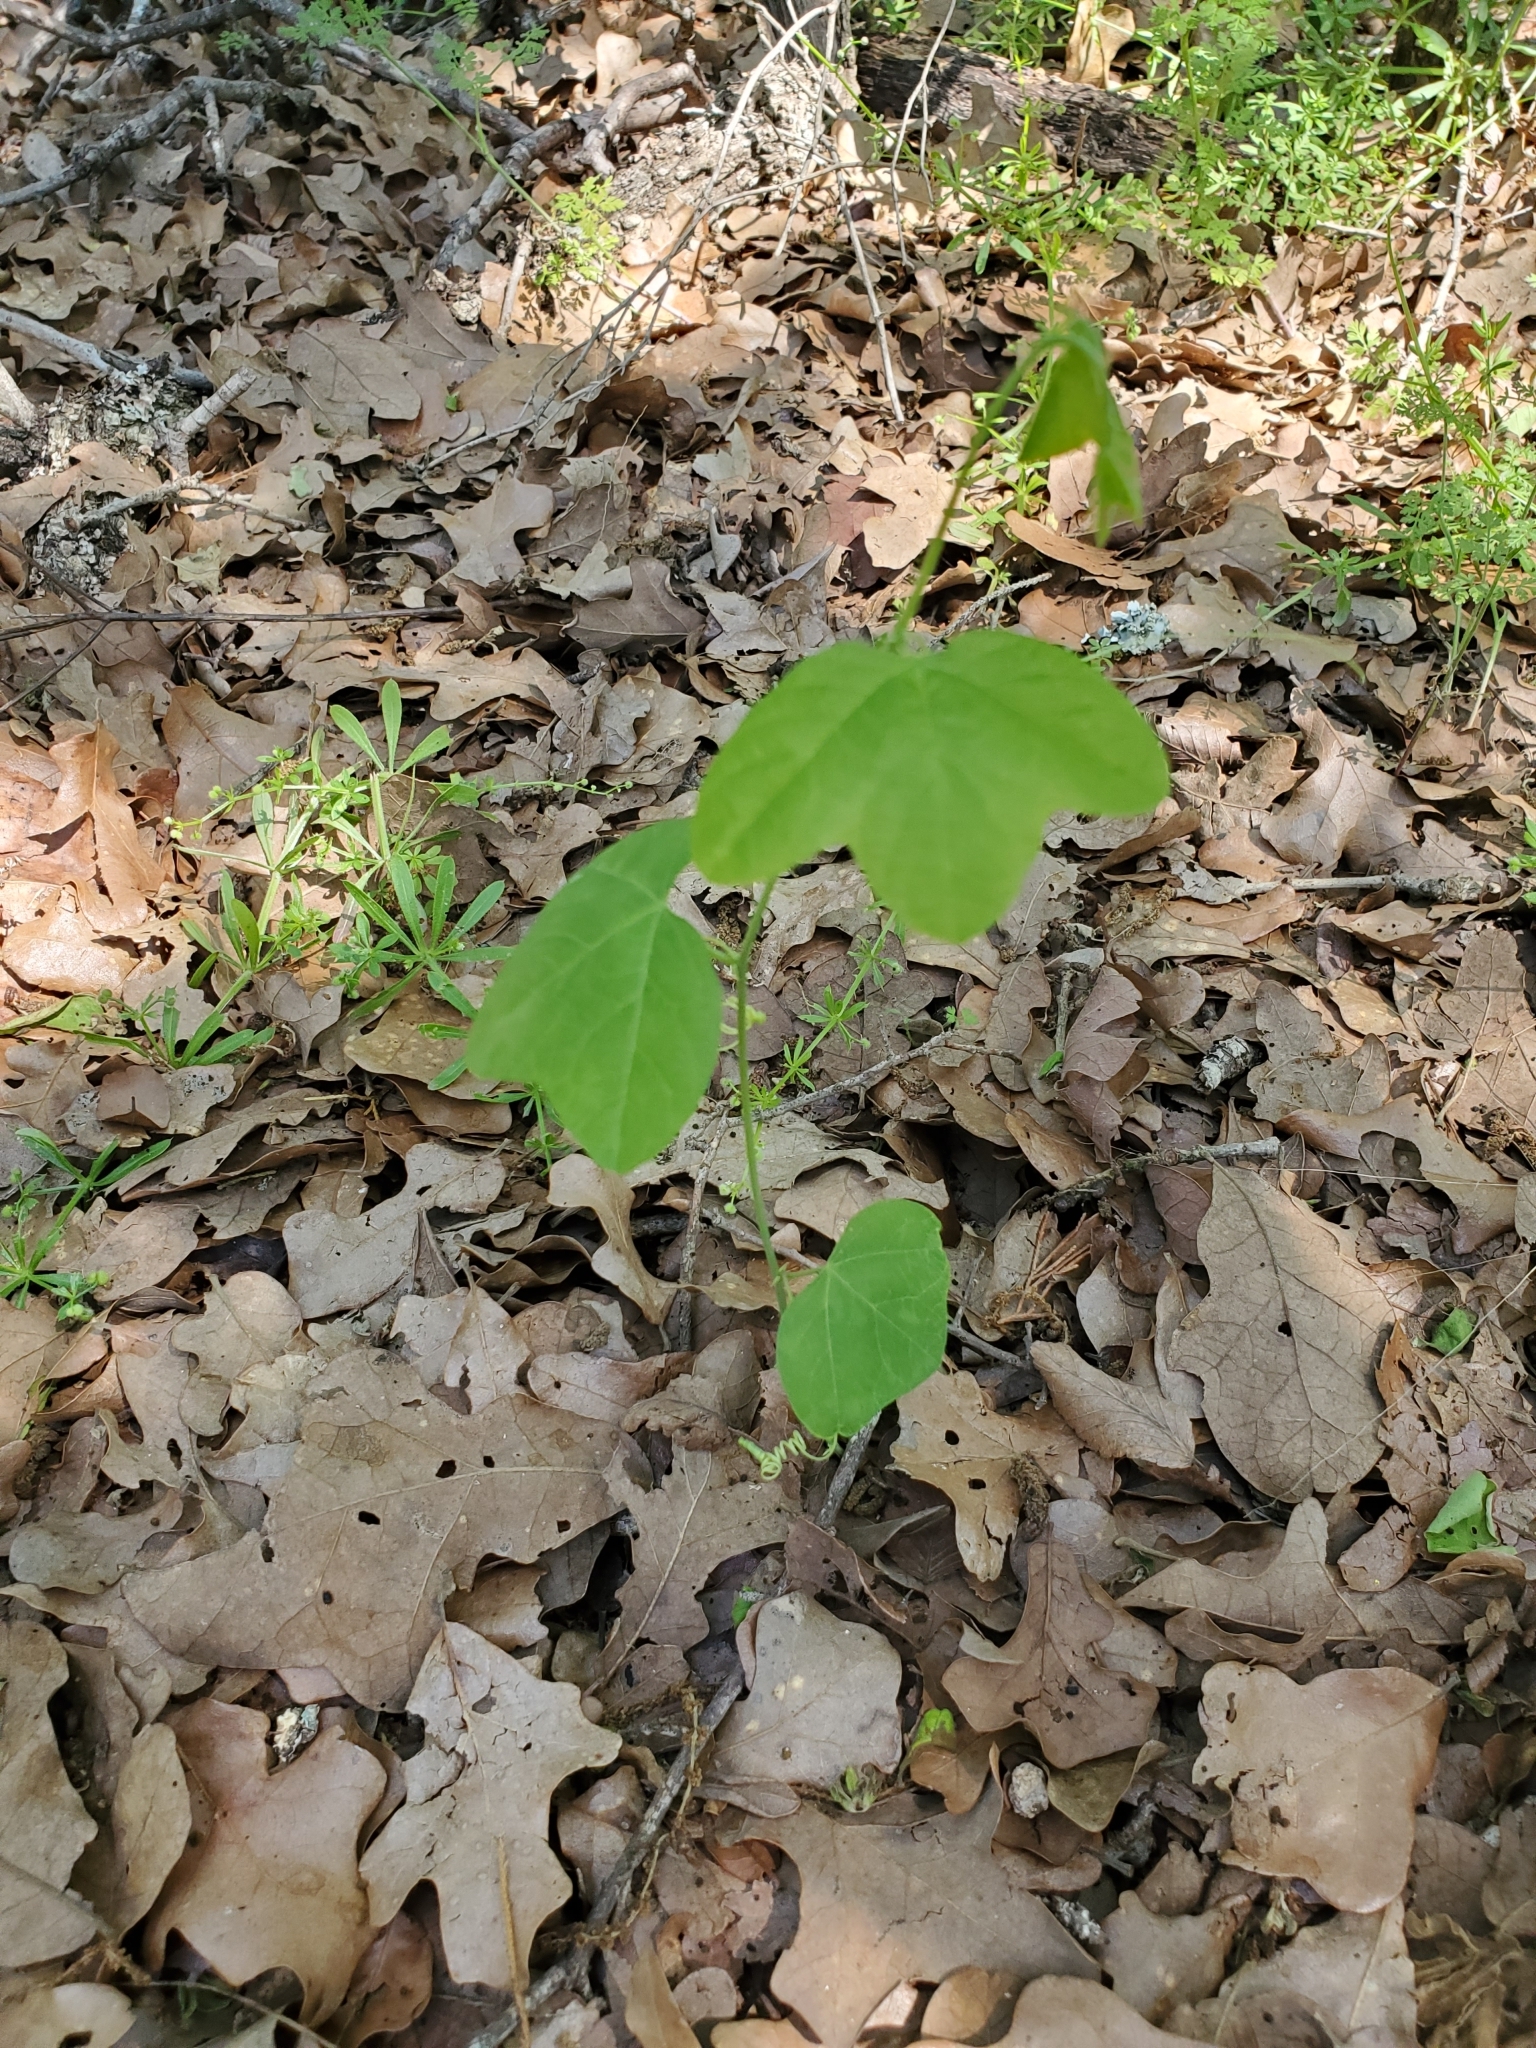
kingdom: Plantae
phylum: Tracheophyta
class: Magnoliopsida
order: Malpighiales
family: Passifloraceae
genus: Passiflora
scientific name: Passiflora lutea
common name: Yellow passionflower
